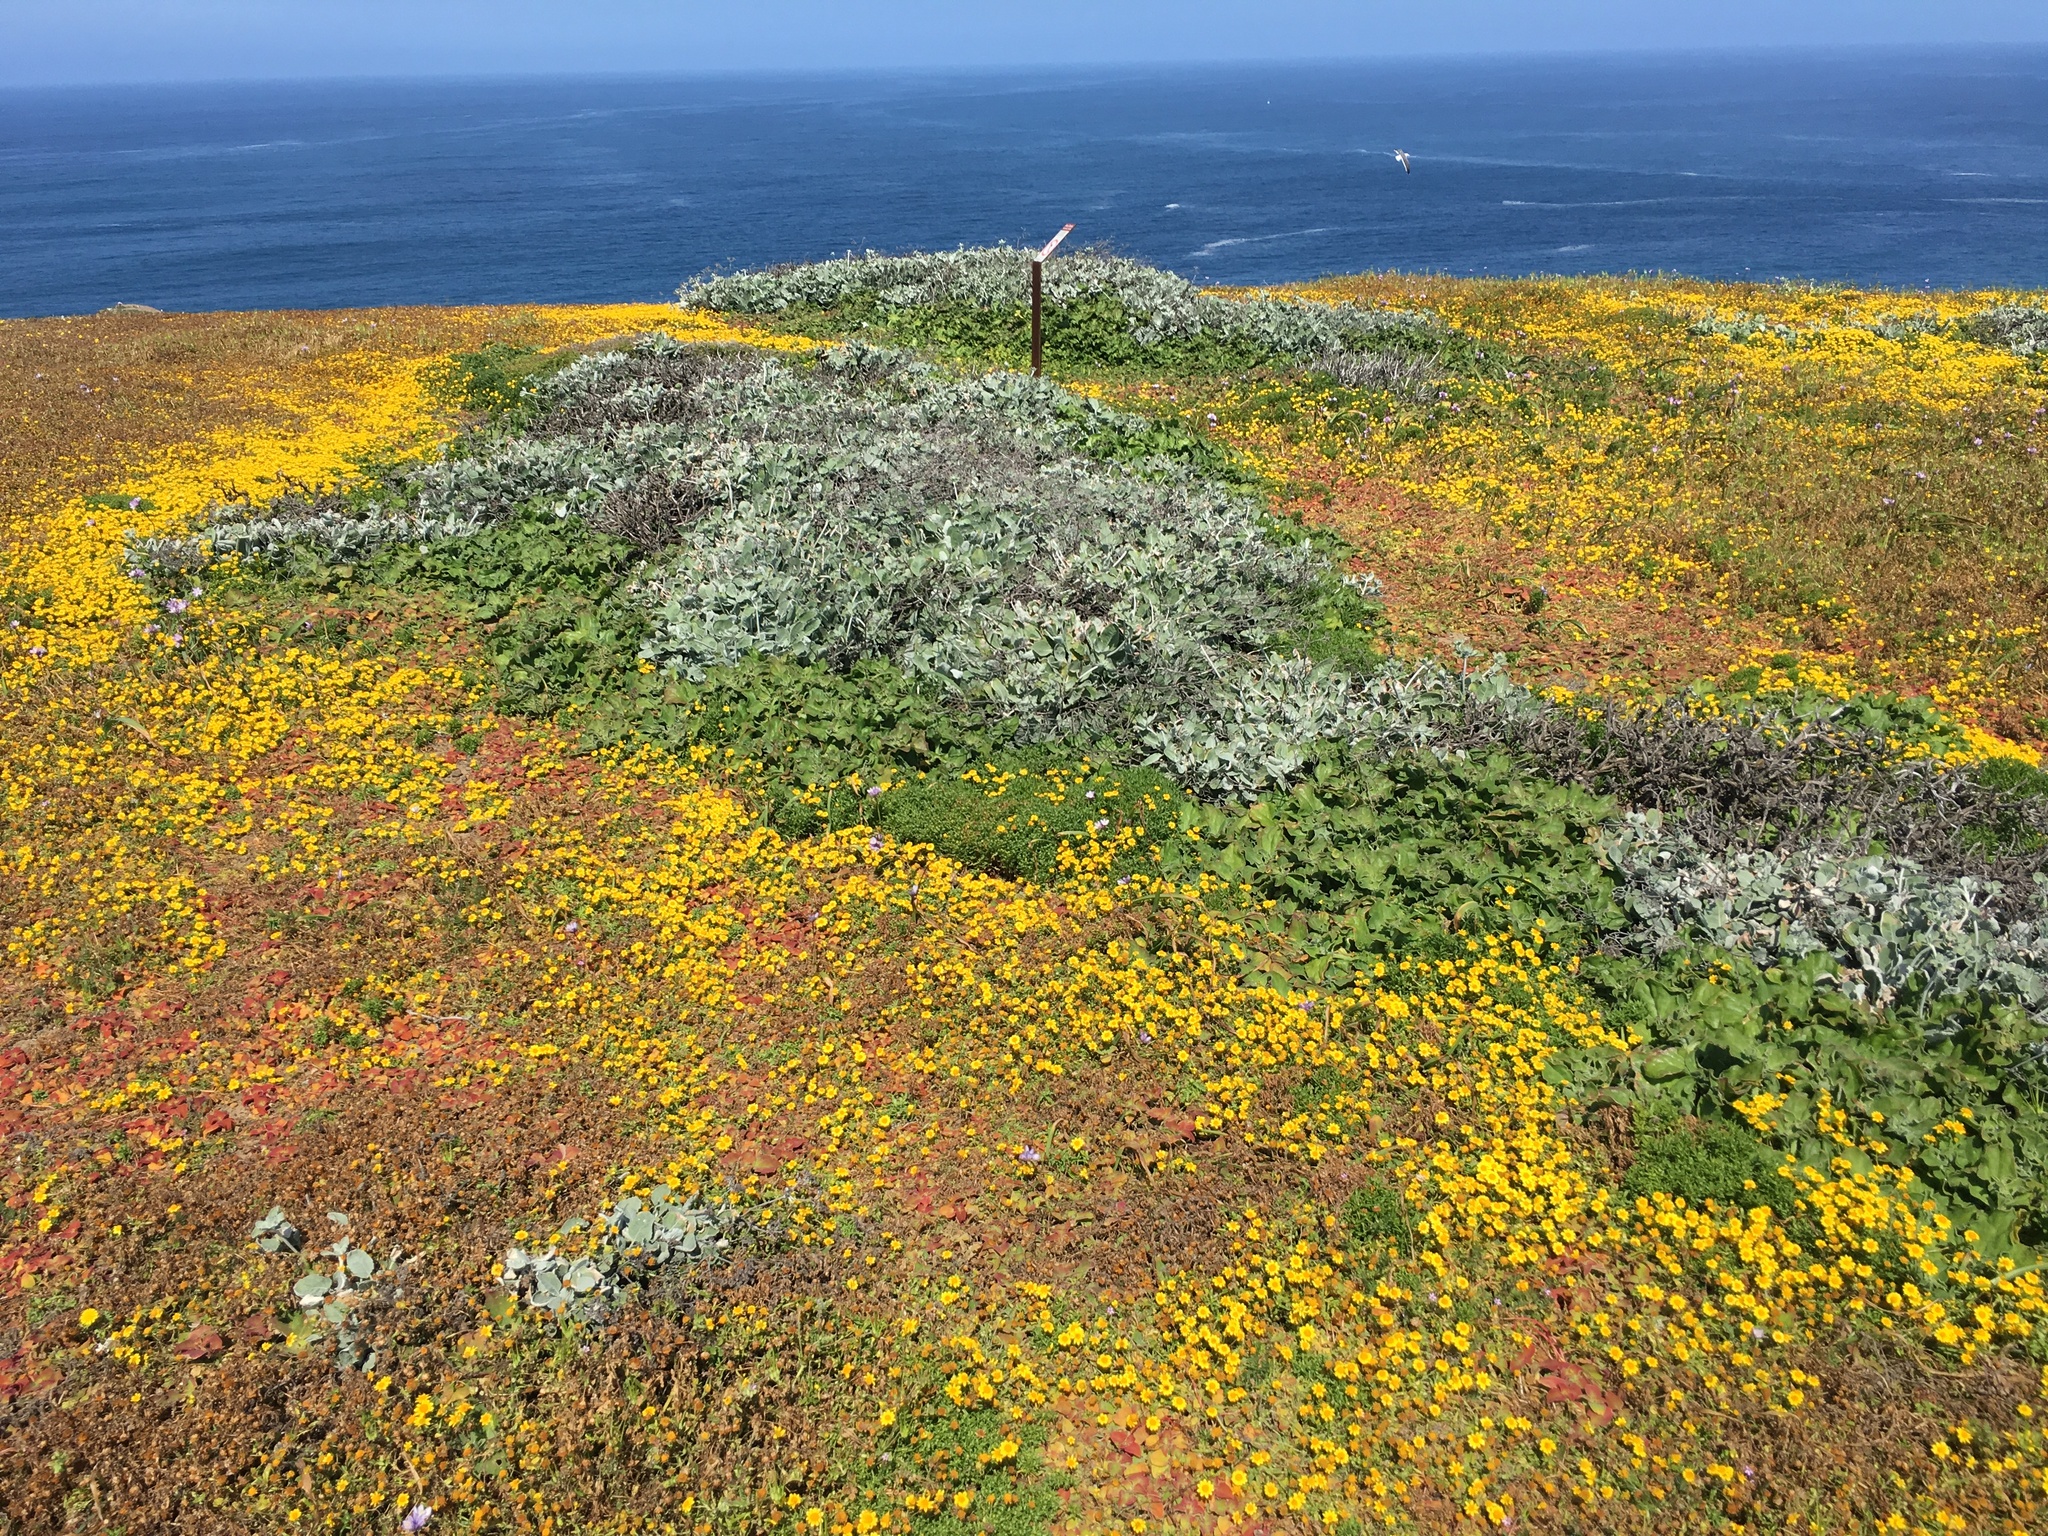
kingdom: Plantae
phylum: Tracheophyta
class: Magnoliopsida
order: Caryophyllales
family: Polygonaceae
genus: Eriogonum
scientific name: Eriogonum giganteum
